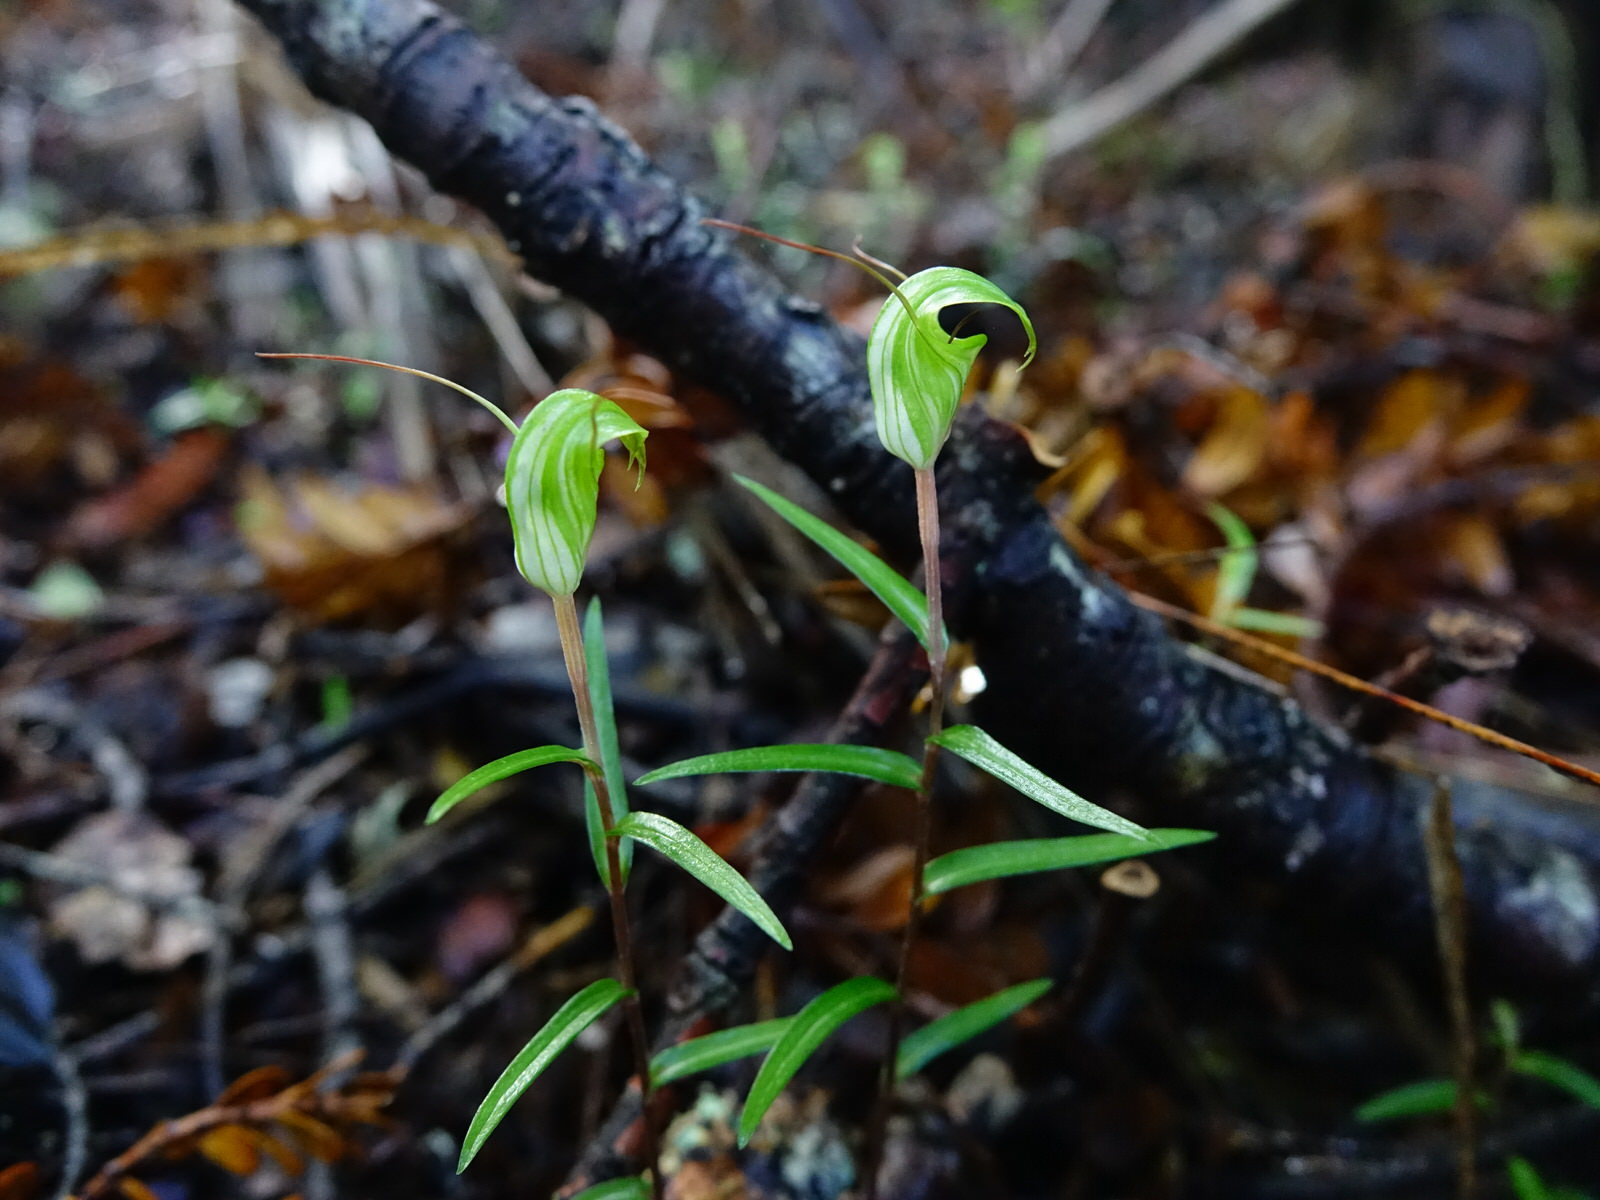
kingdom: Plantae
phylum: Tracheophyta
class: Liliopsida
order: Asparagales
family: Orchidaceae
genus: Pterostylis
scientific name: Pterostylis brumalis
